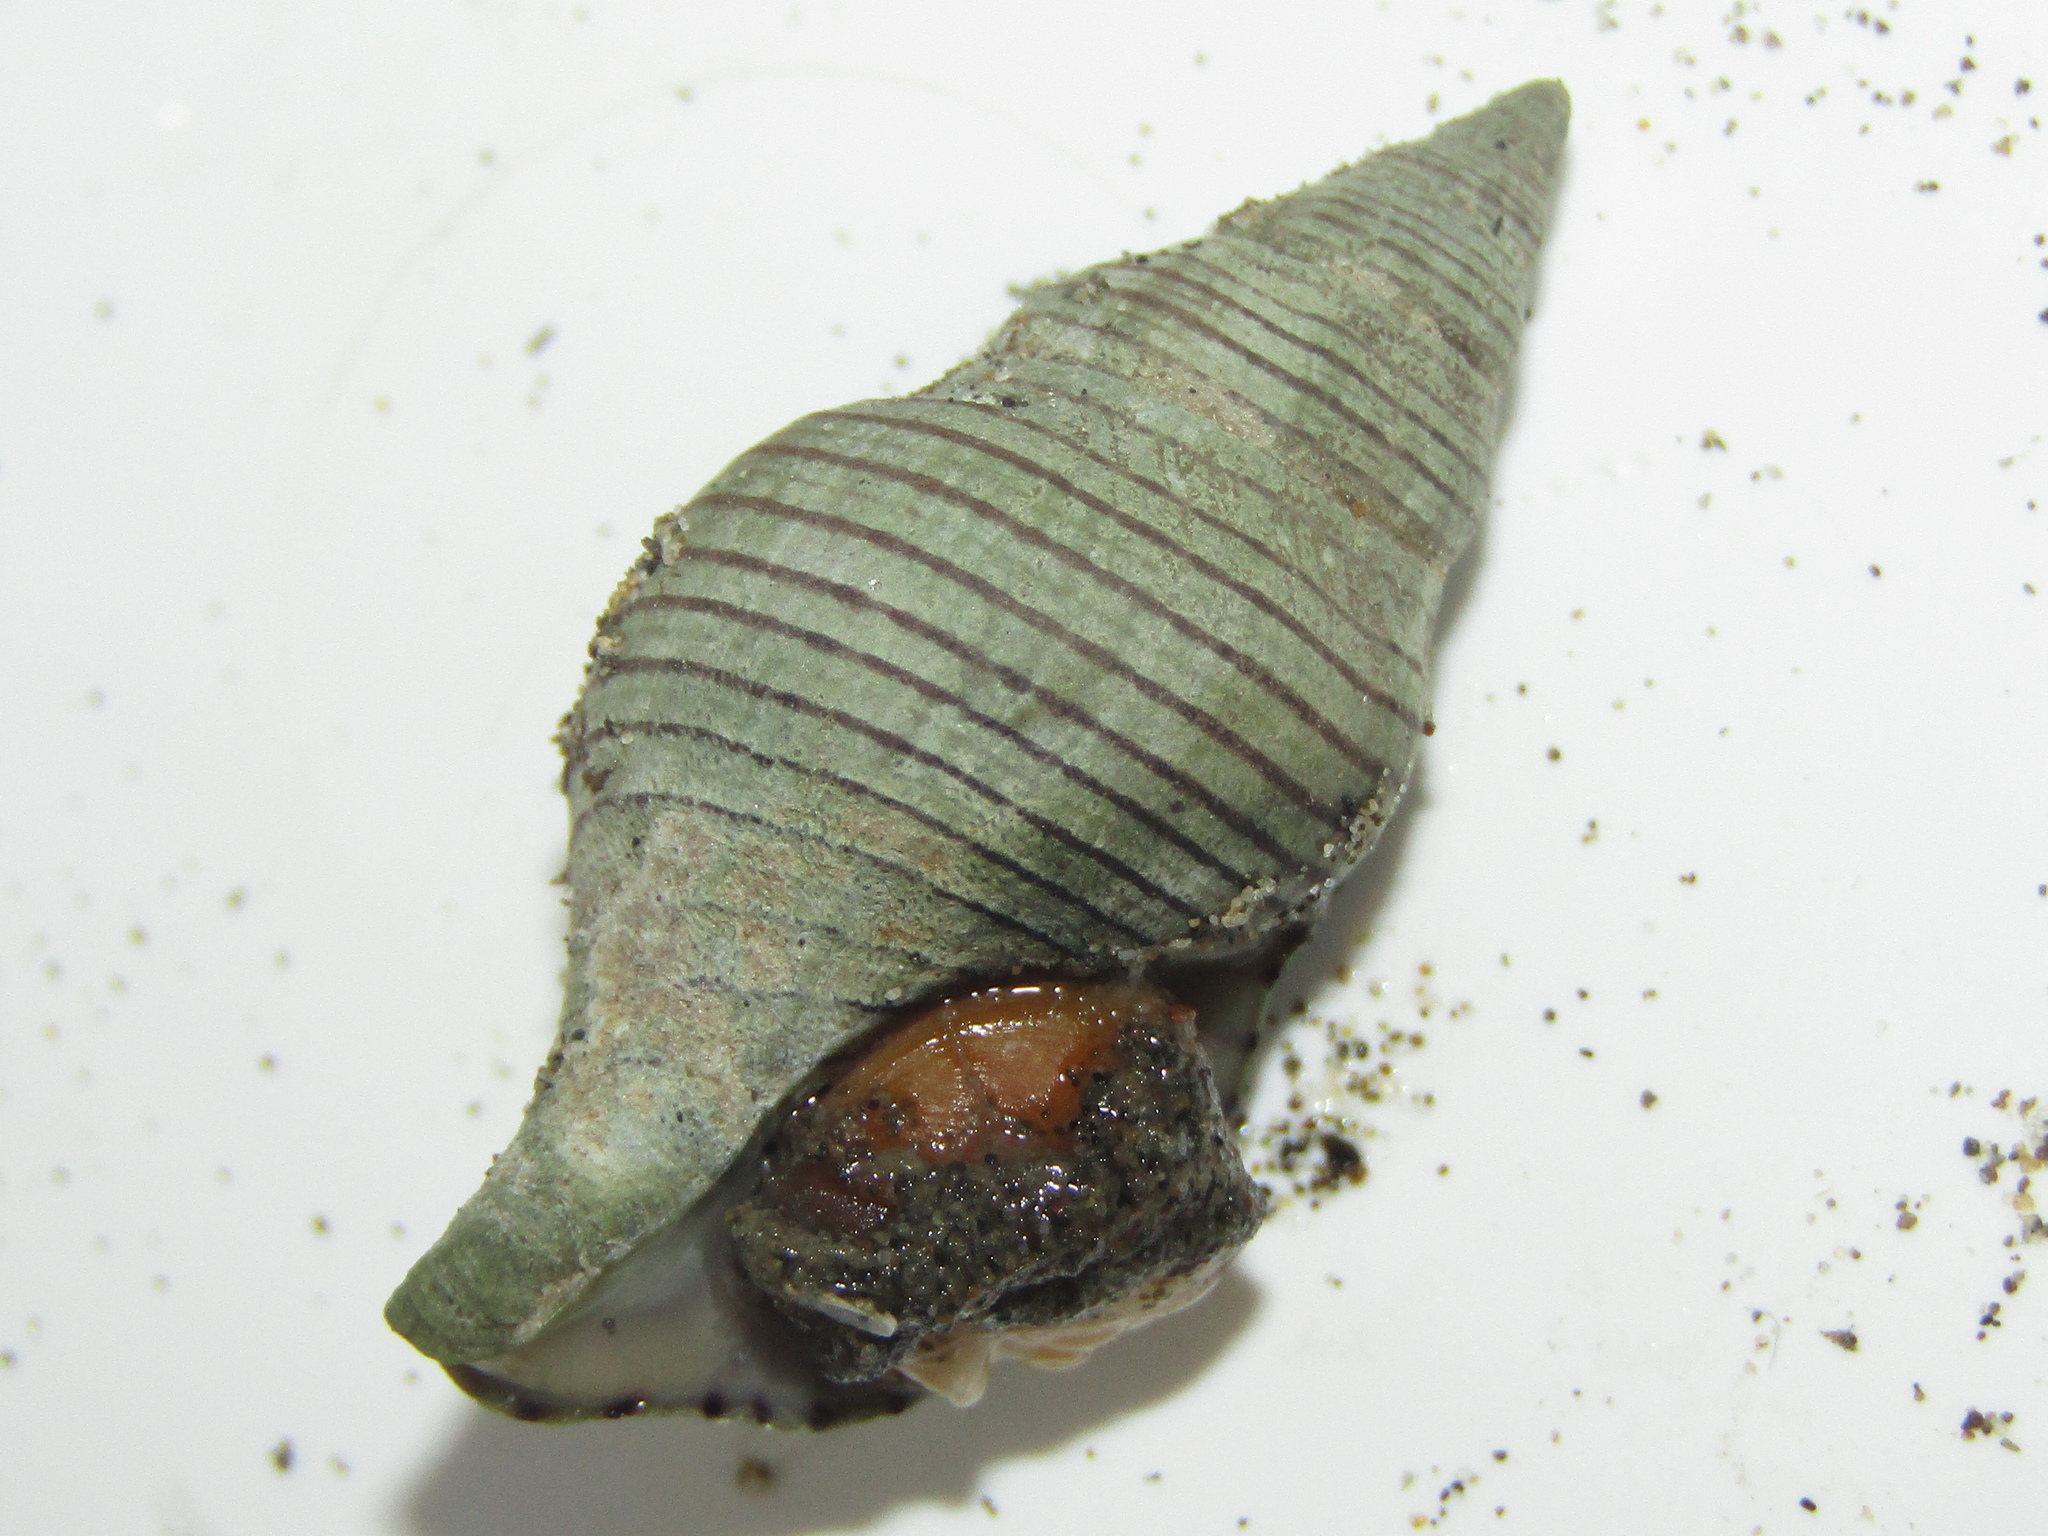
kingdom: Animalia
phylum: Mollusca
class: Gastropoda
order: Neogastropoda
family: Tudiclidae
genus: Buccinulum
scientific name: Buccinulum linea
